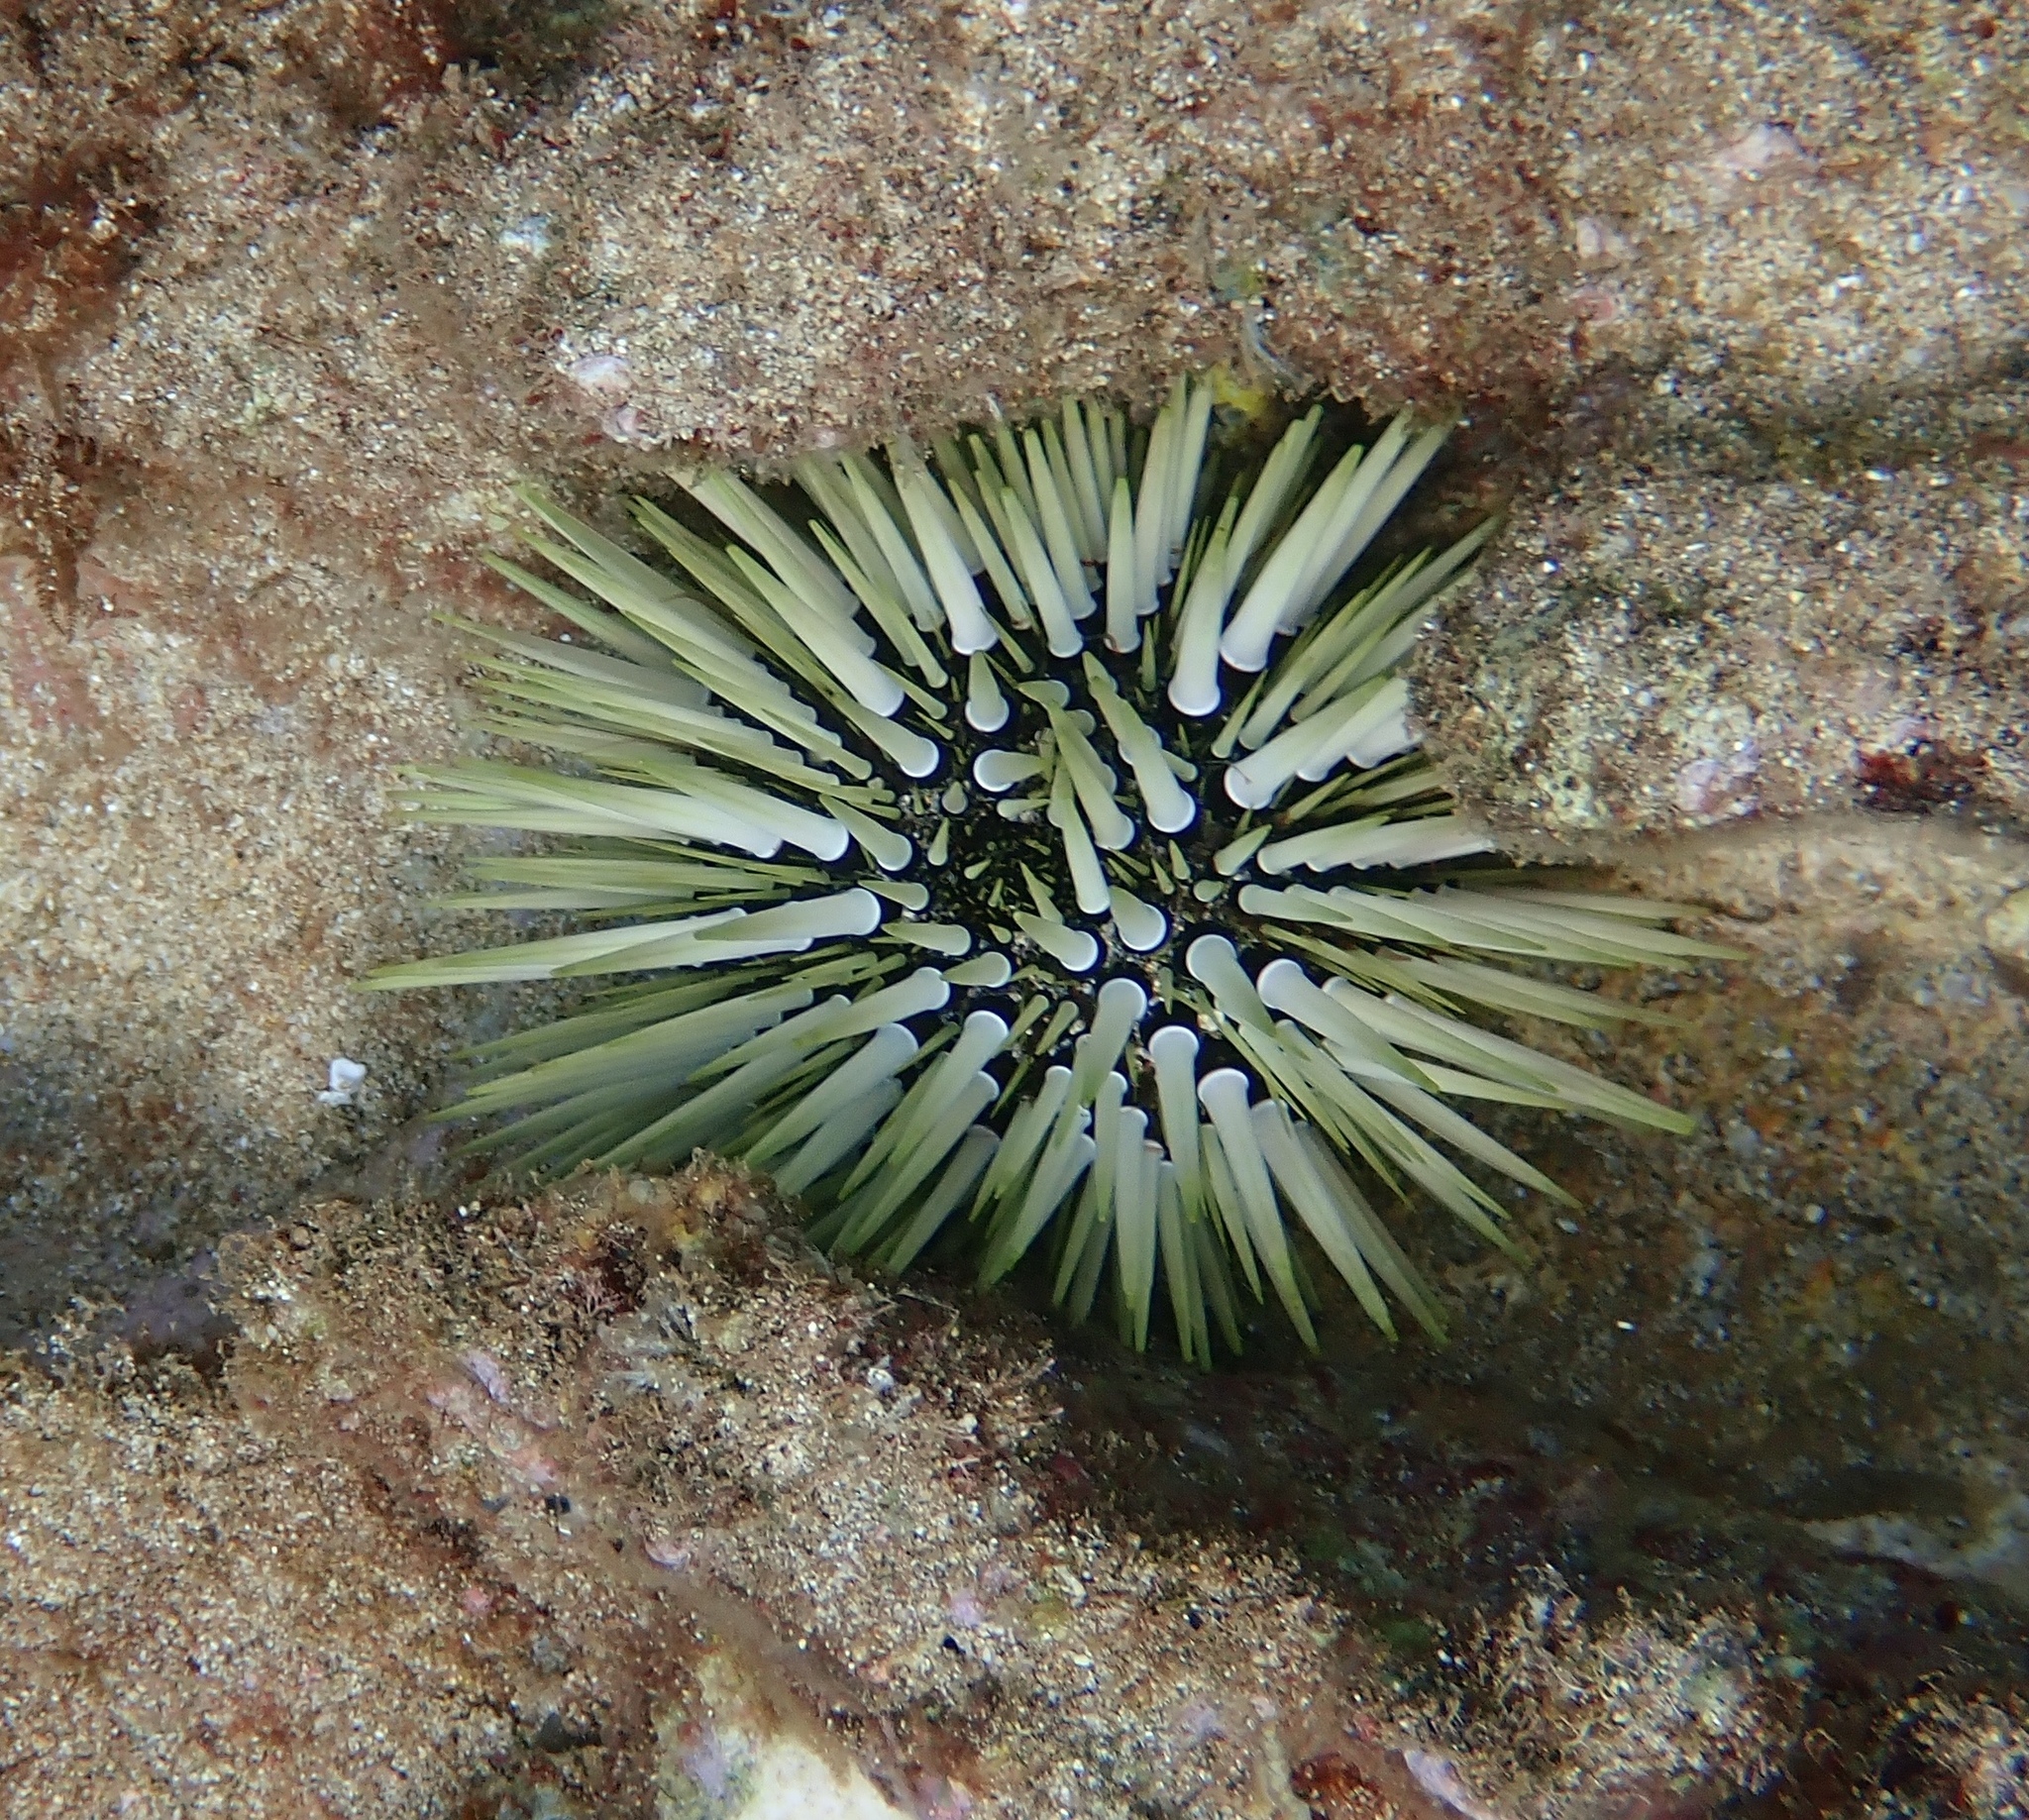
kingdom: Animalia
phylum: Echinodermata
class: Echinoidea
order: Camarodonta
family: Echinometridae
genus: Echinometra
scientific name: Echinometra mathaei
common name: Rock-boring urchin
